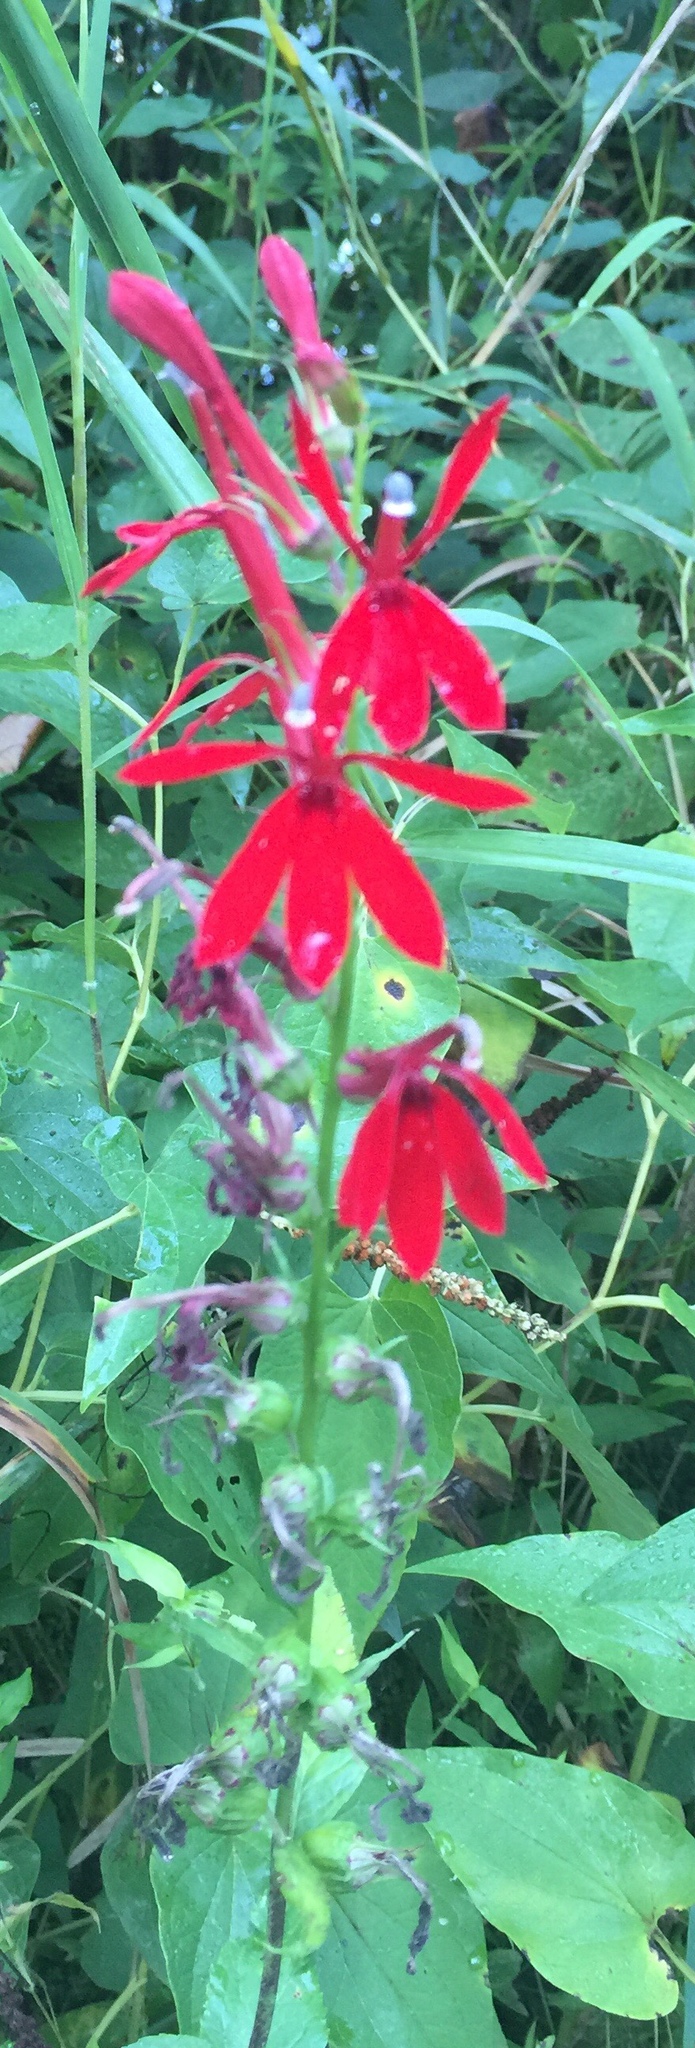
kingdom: Plantae
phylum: Tracheophyta
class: Magnoliopsida
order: Asterales
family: Campanulaceae
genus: Lobelia
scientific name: Lobelia cardinalis
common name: Cardinal flower
